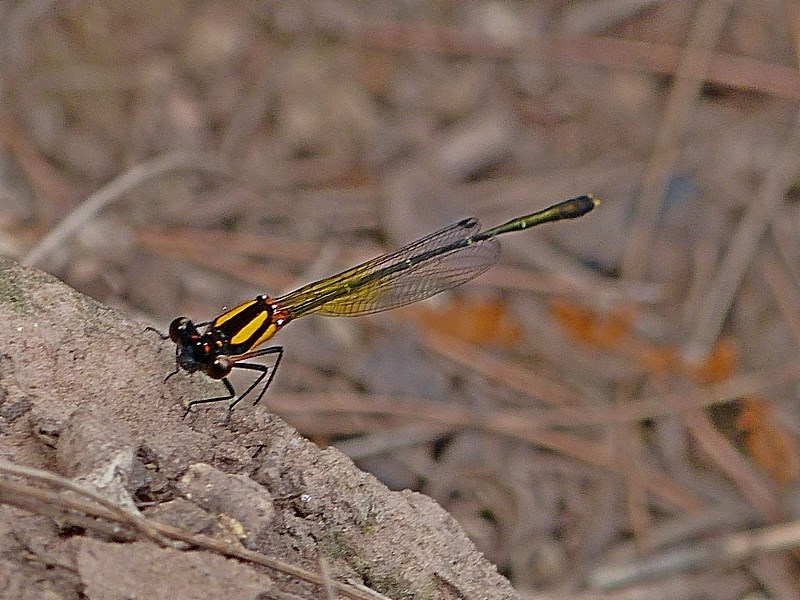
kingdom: Animalia
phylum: Arthropoda
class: Insecta
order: Odonata
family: Platycnemididae
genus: Nososticta
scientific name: Nososticta solida
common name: Orange threadtail
